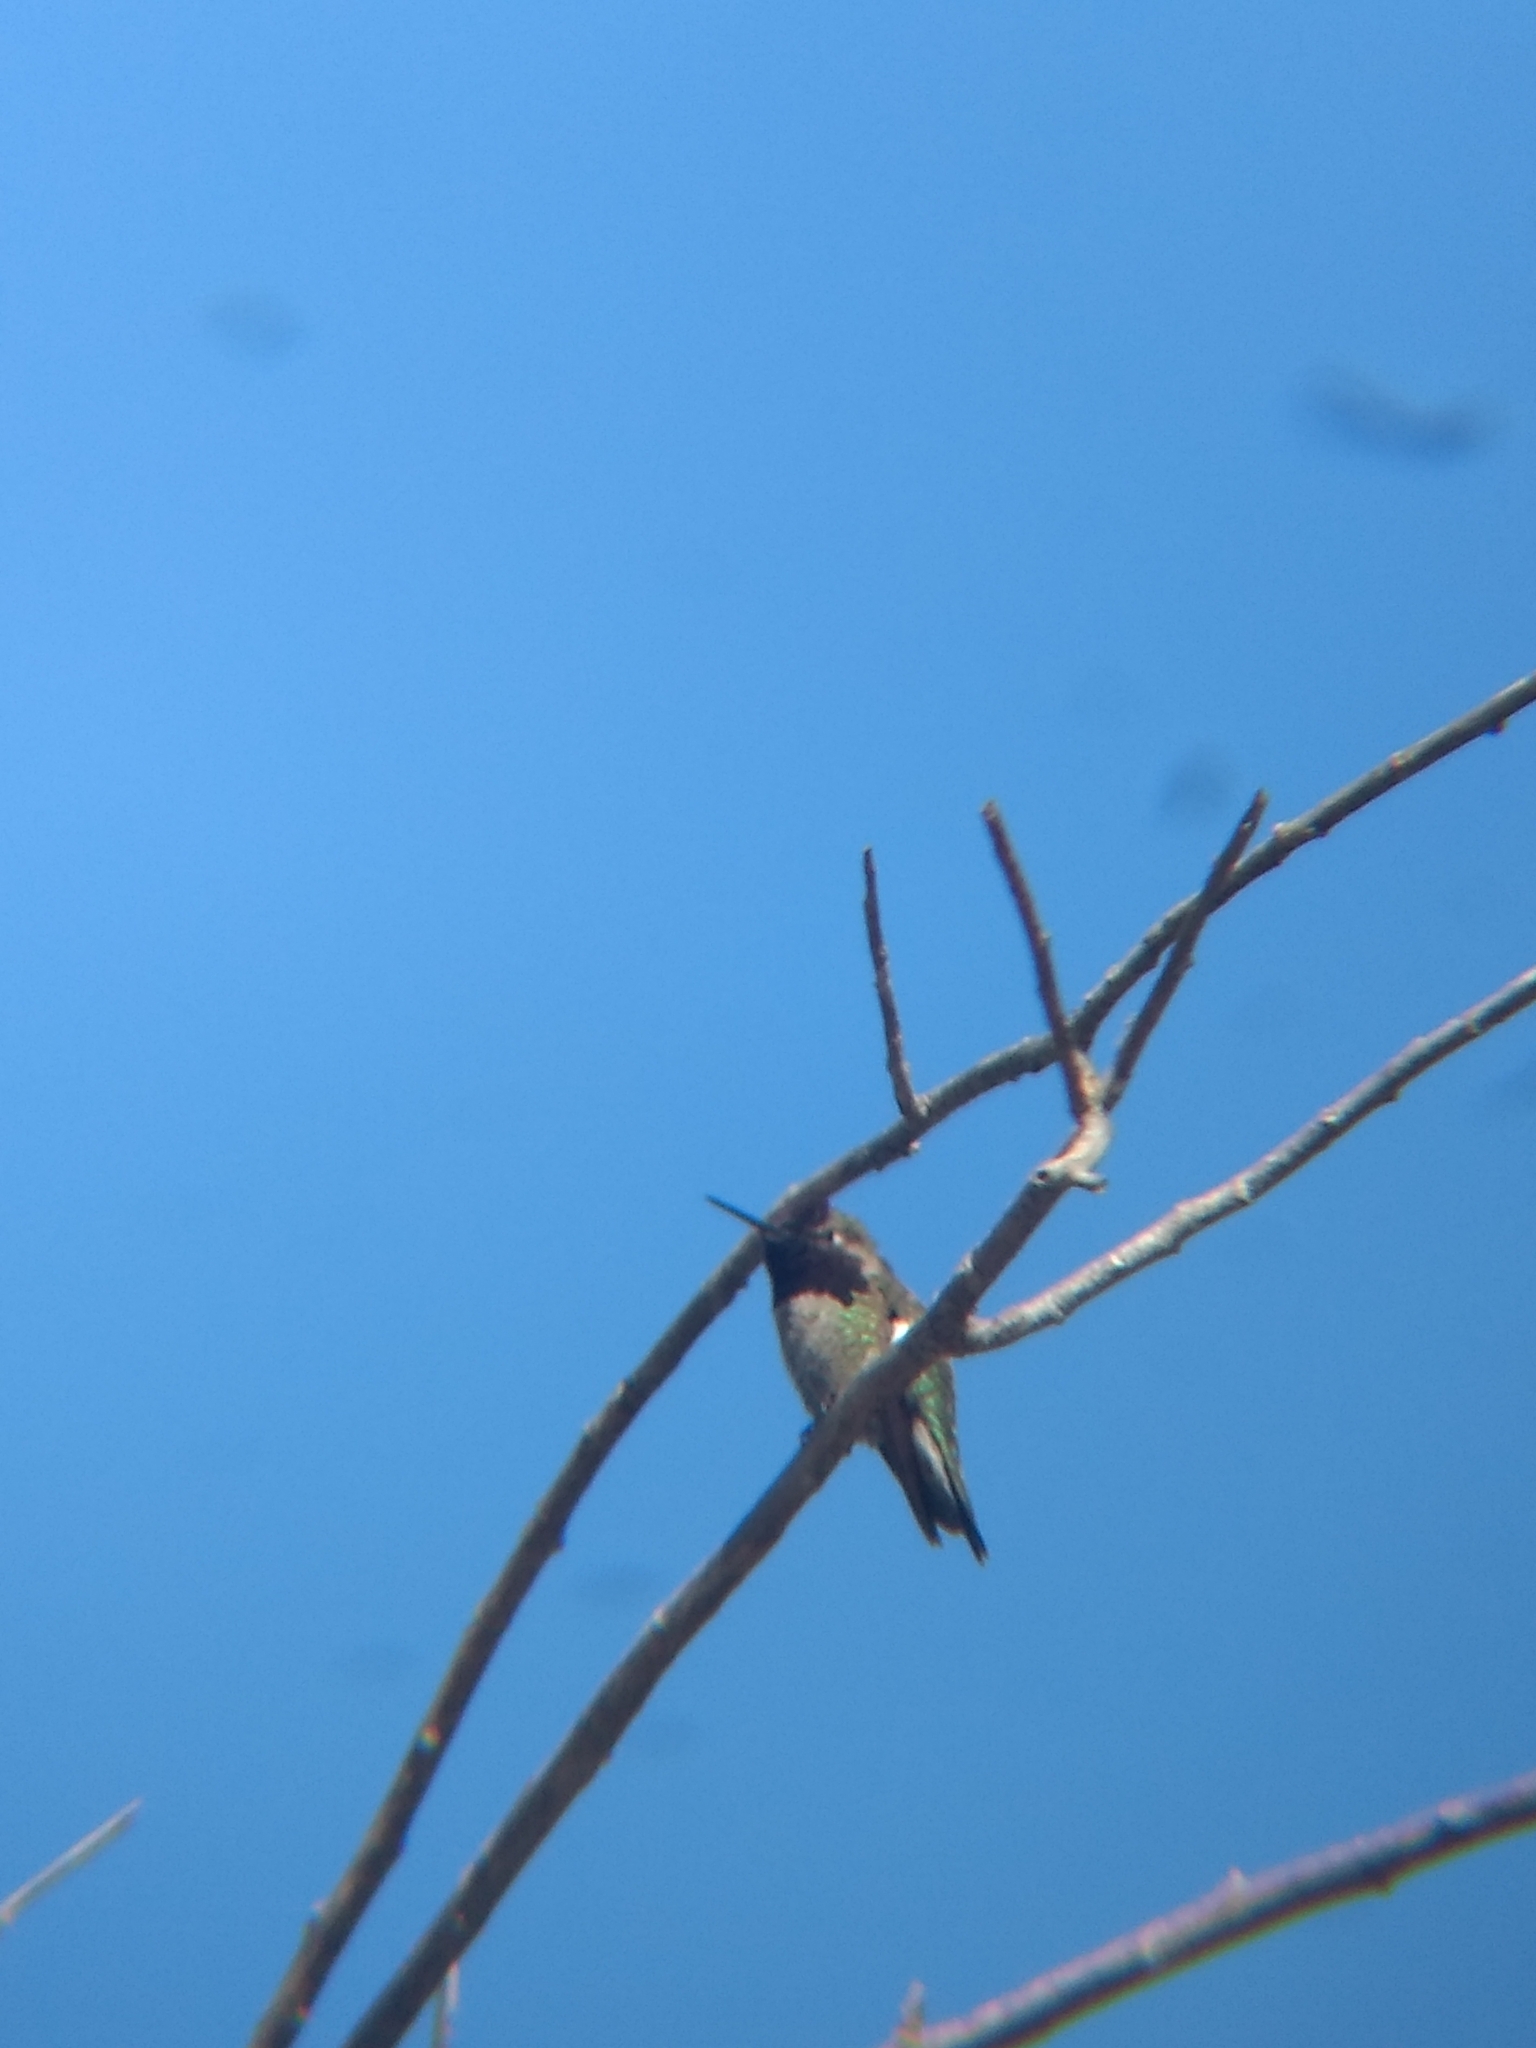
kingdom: Animalia
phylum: Chordata
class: Aves
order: Apodiformes
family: Trochilidae
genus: Calypte
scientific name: Calypte anna
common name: Anna's hummingbird
